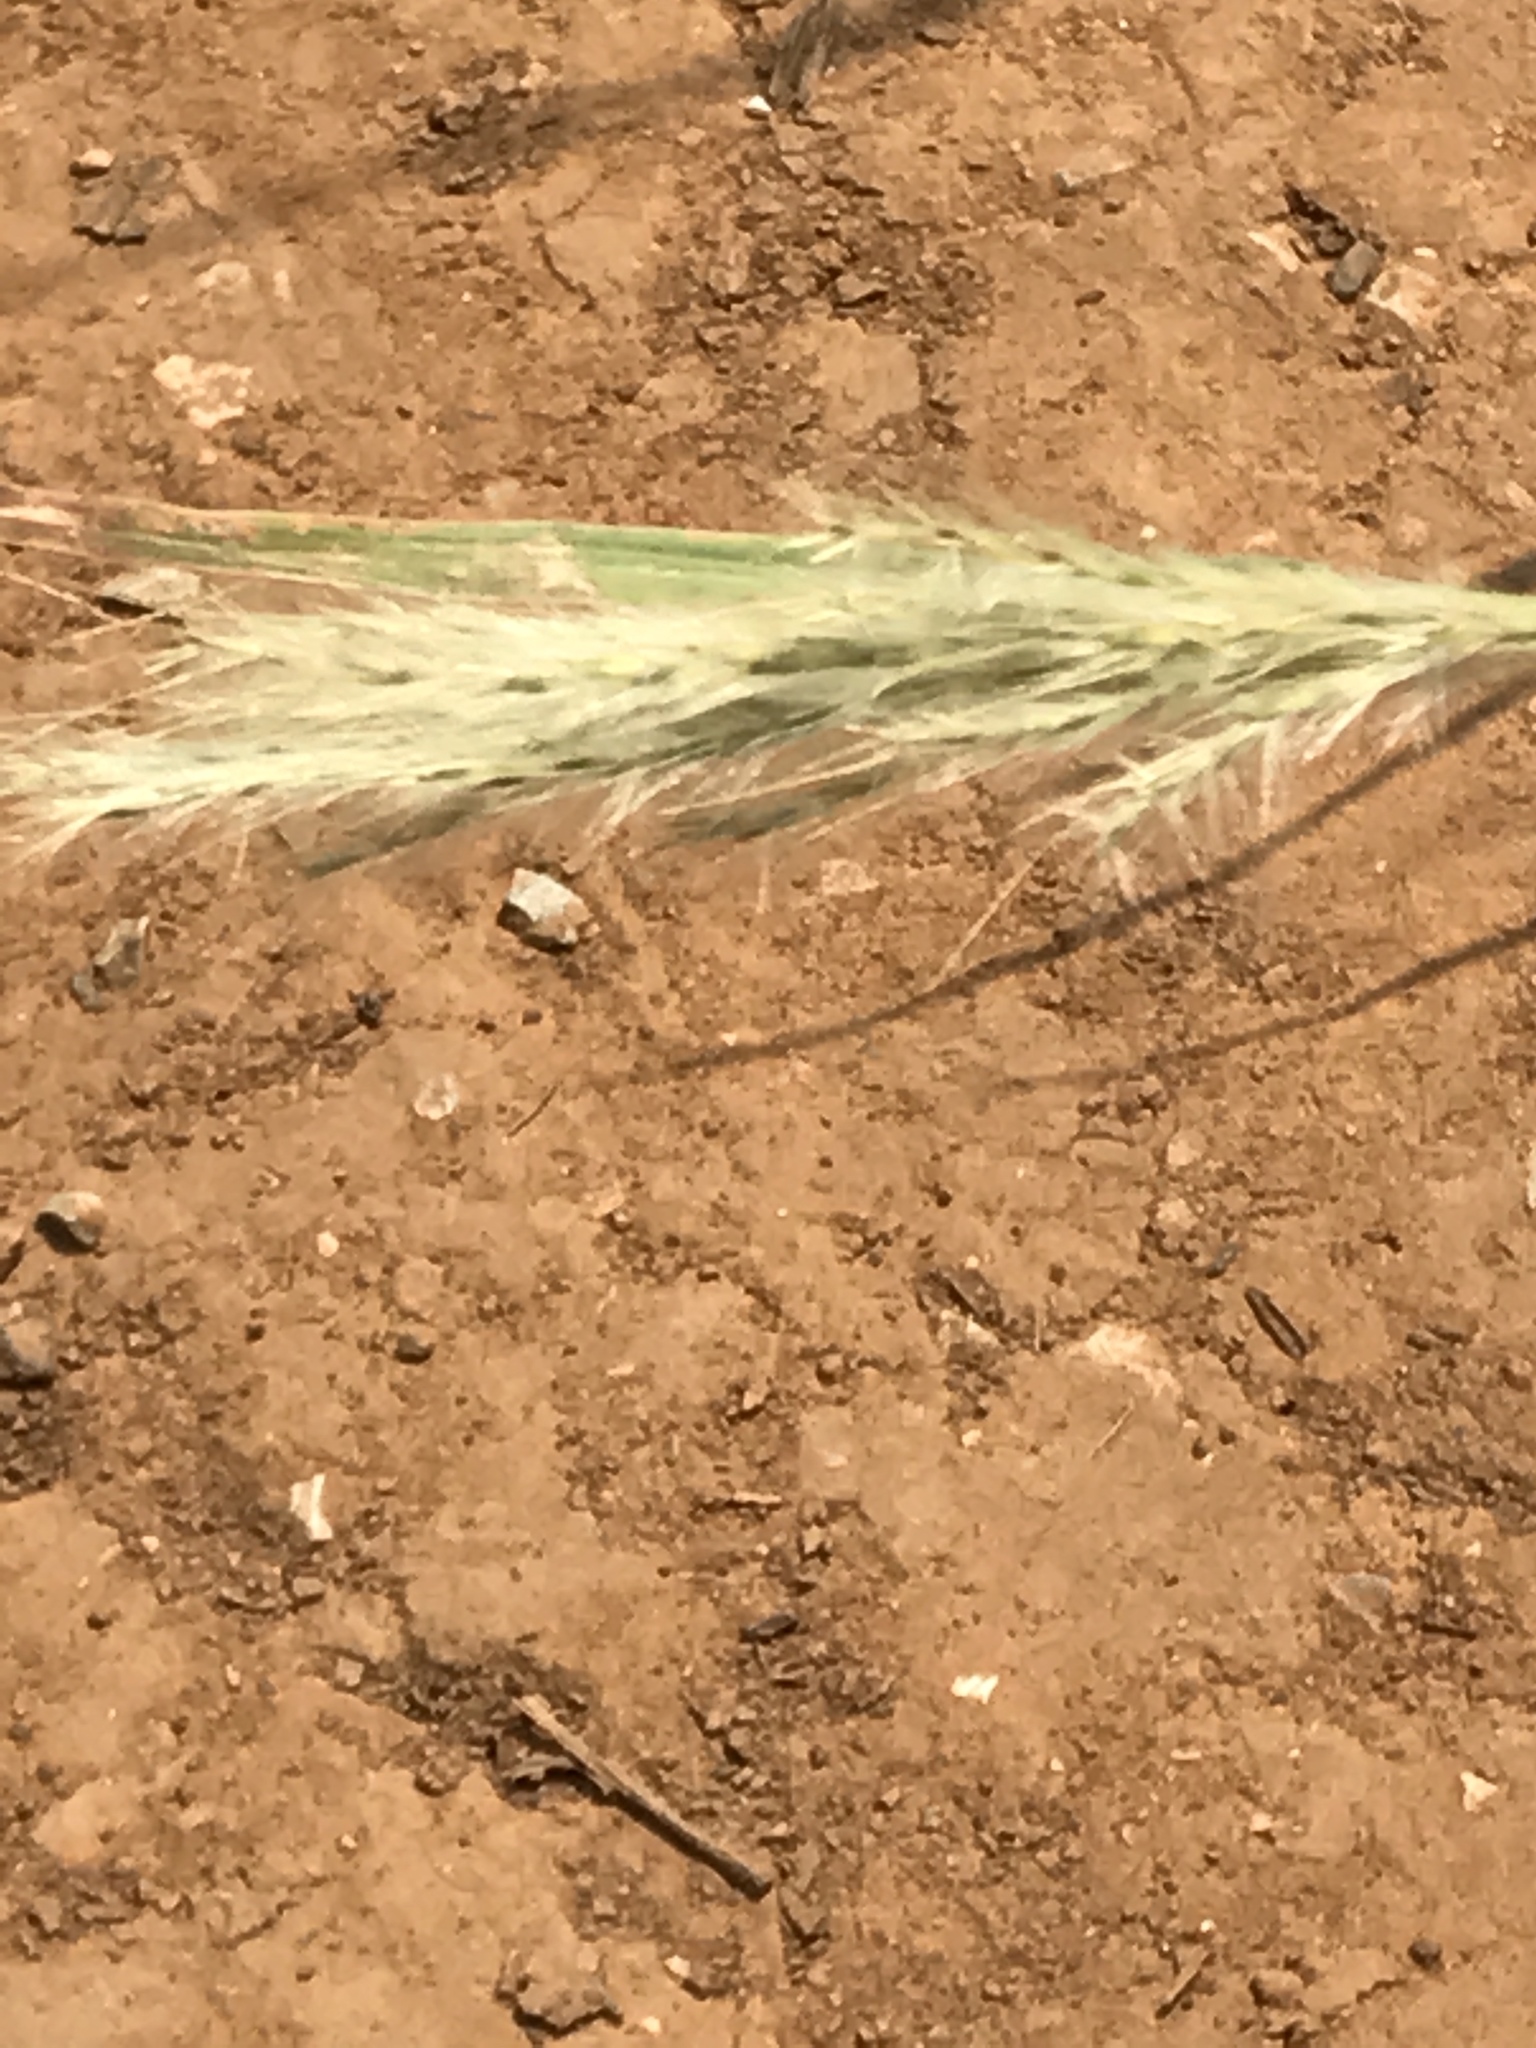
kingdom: Plantae
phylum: Tracheophyta
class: Liliopsida
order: Poales
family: Poaceae
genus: Bothriochloa
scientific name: Bothriochloa torreyana
